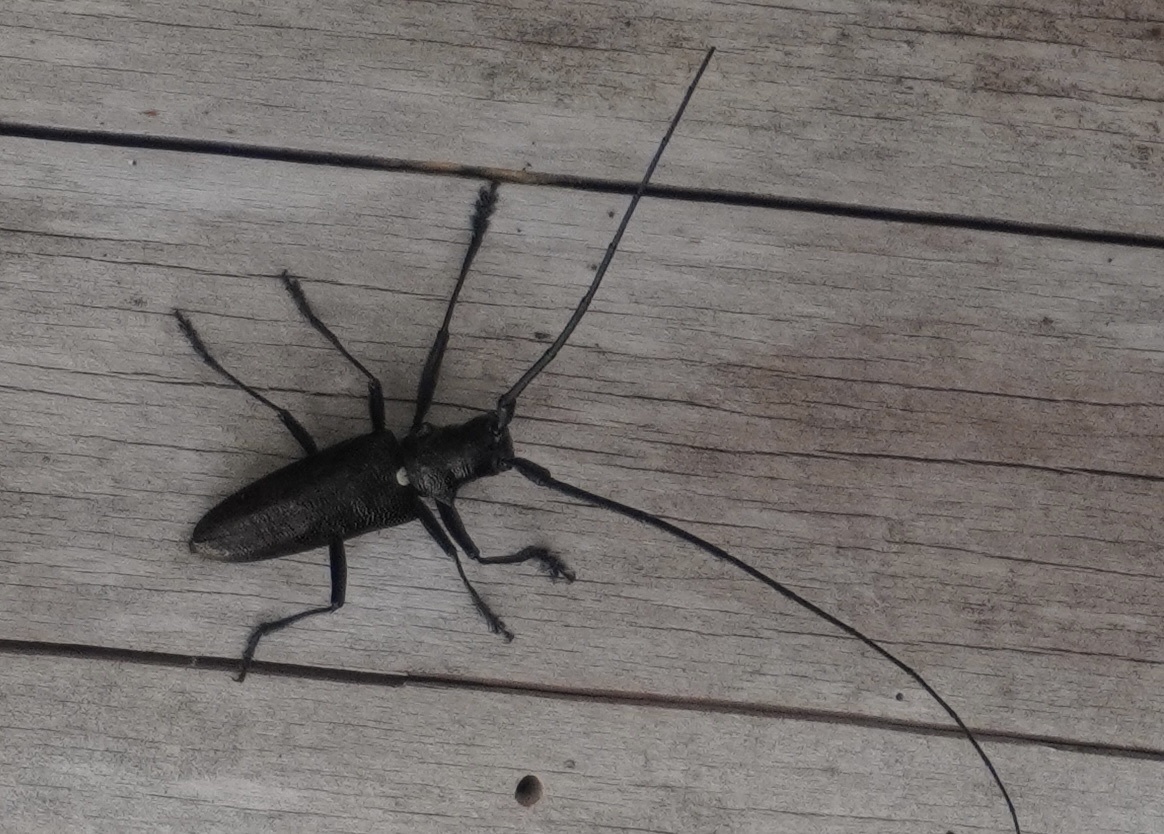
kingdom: Animalia
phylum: Arthropoda
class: Insecta
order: Coleoptera
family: Cerambycidae
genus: Monochamus
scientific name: Monochamus scutellatus
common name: White-spotted sawyer beetle
